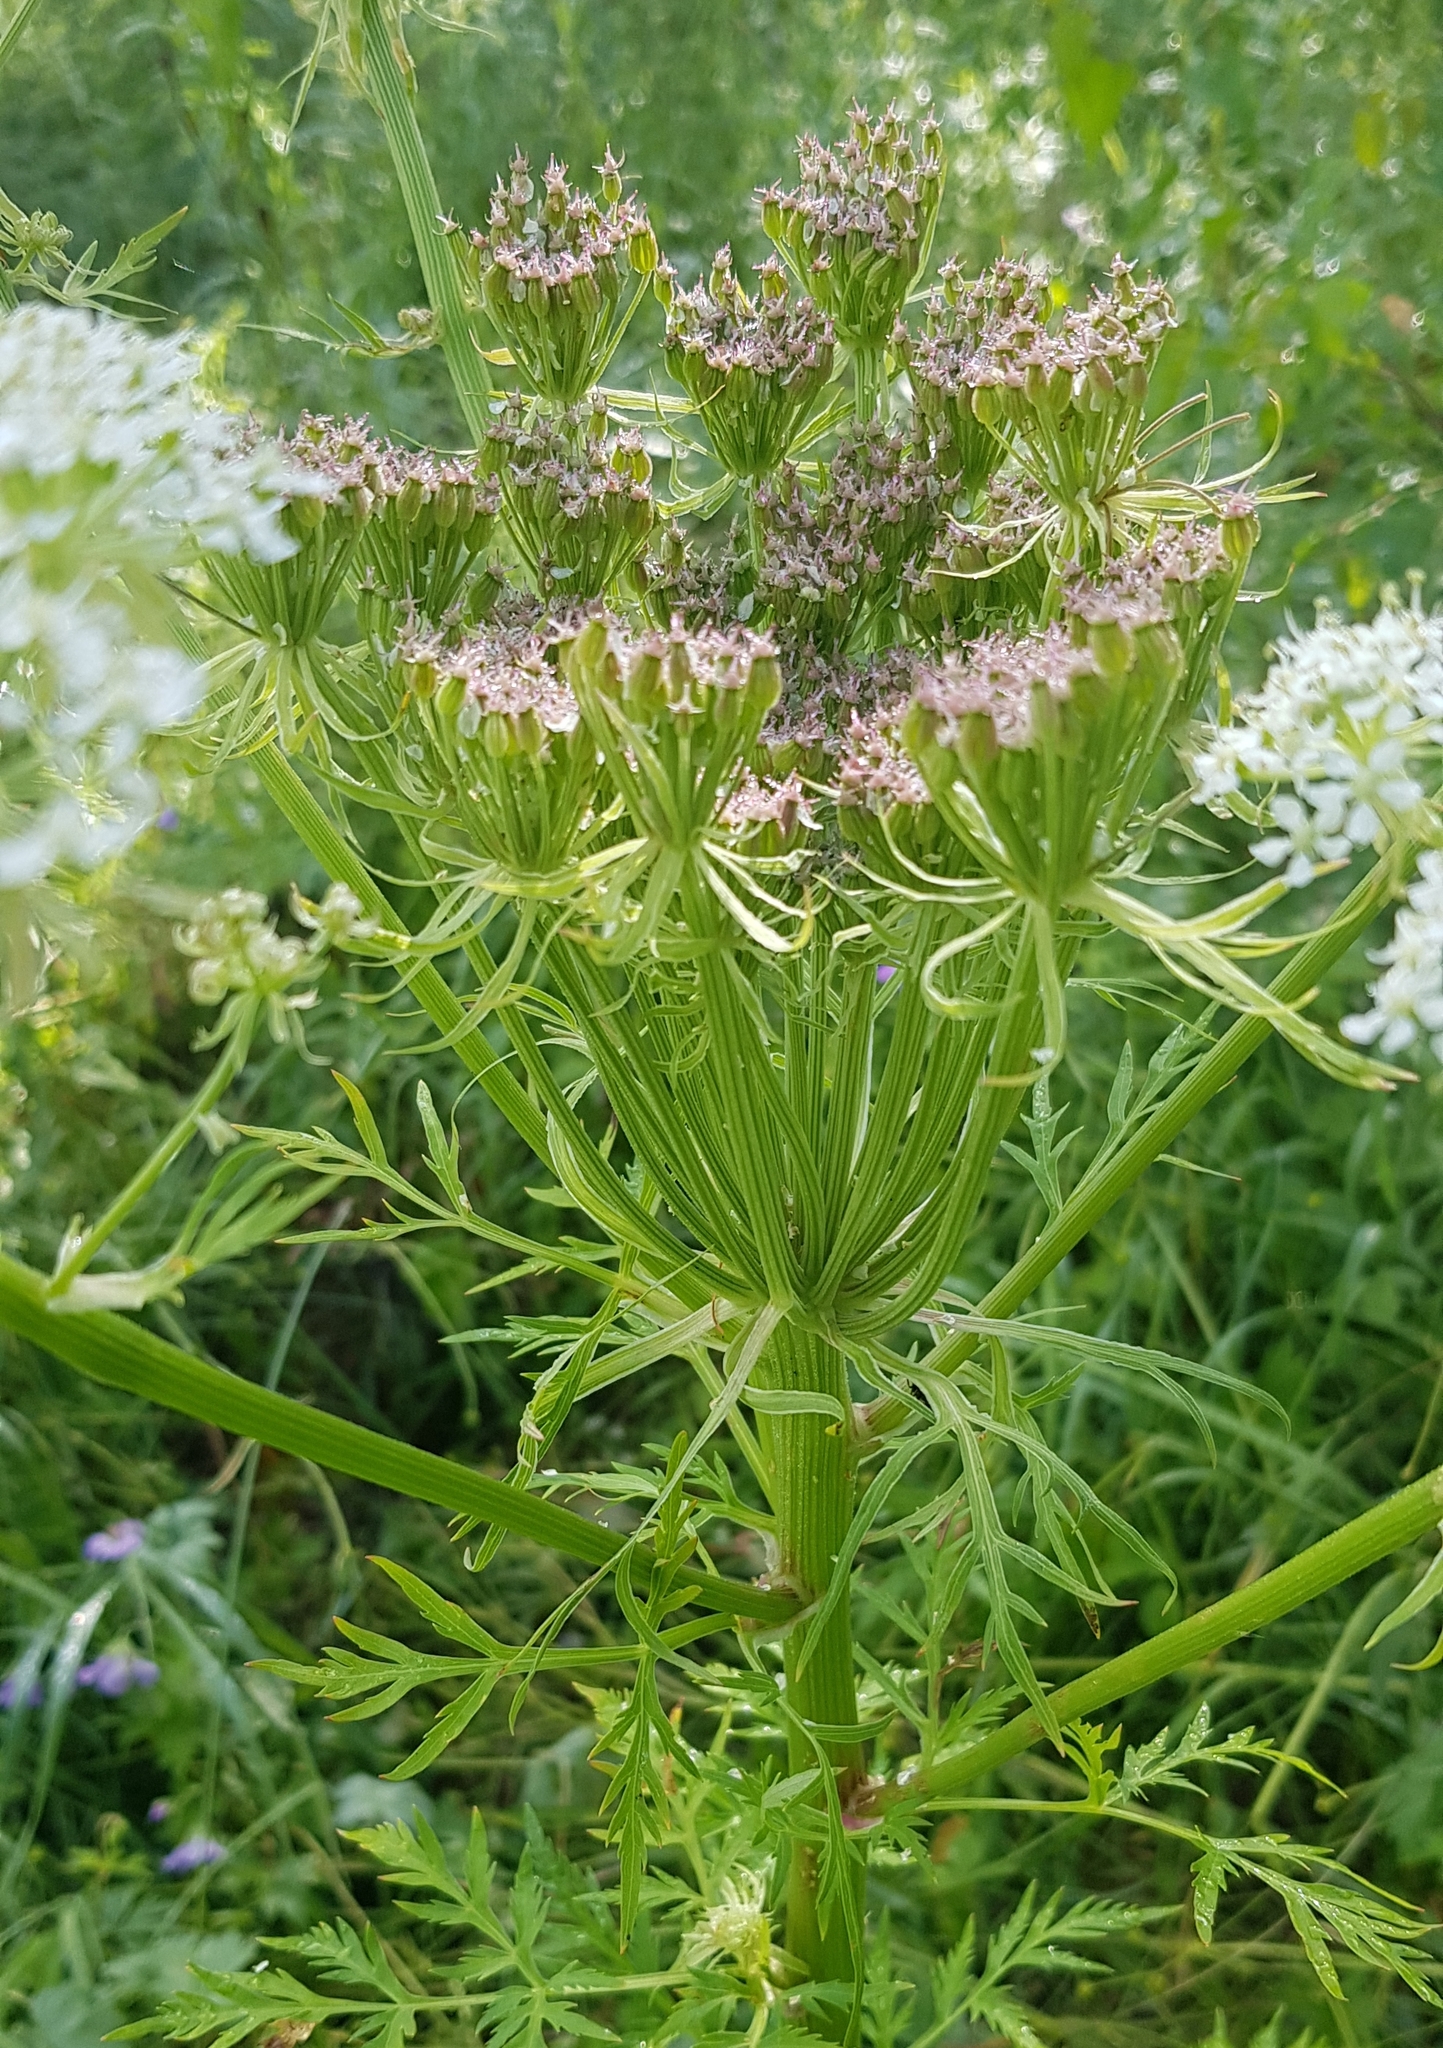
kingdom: Plantae
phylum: Tracheophyta
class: Magnoliopsida
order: Apiales
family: Apiaceae
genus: Pleurospermum
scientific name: Pleurospermum uralense
